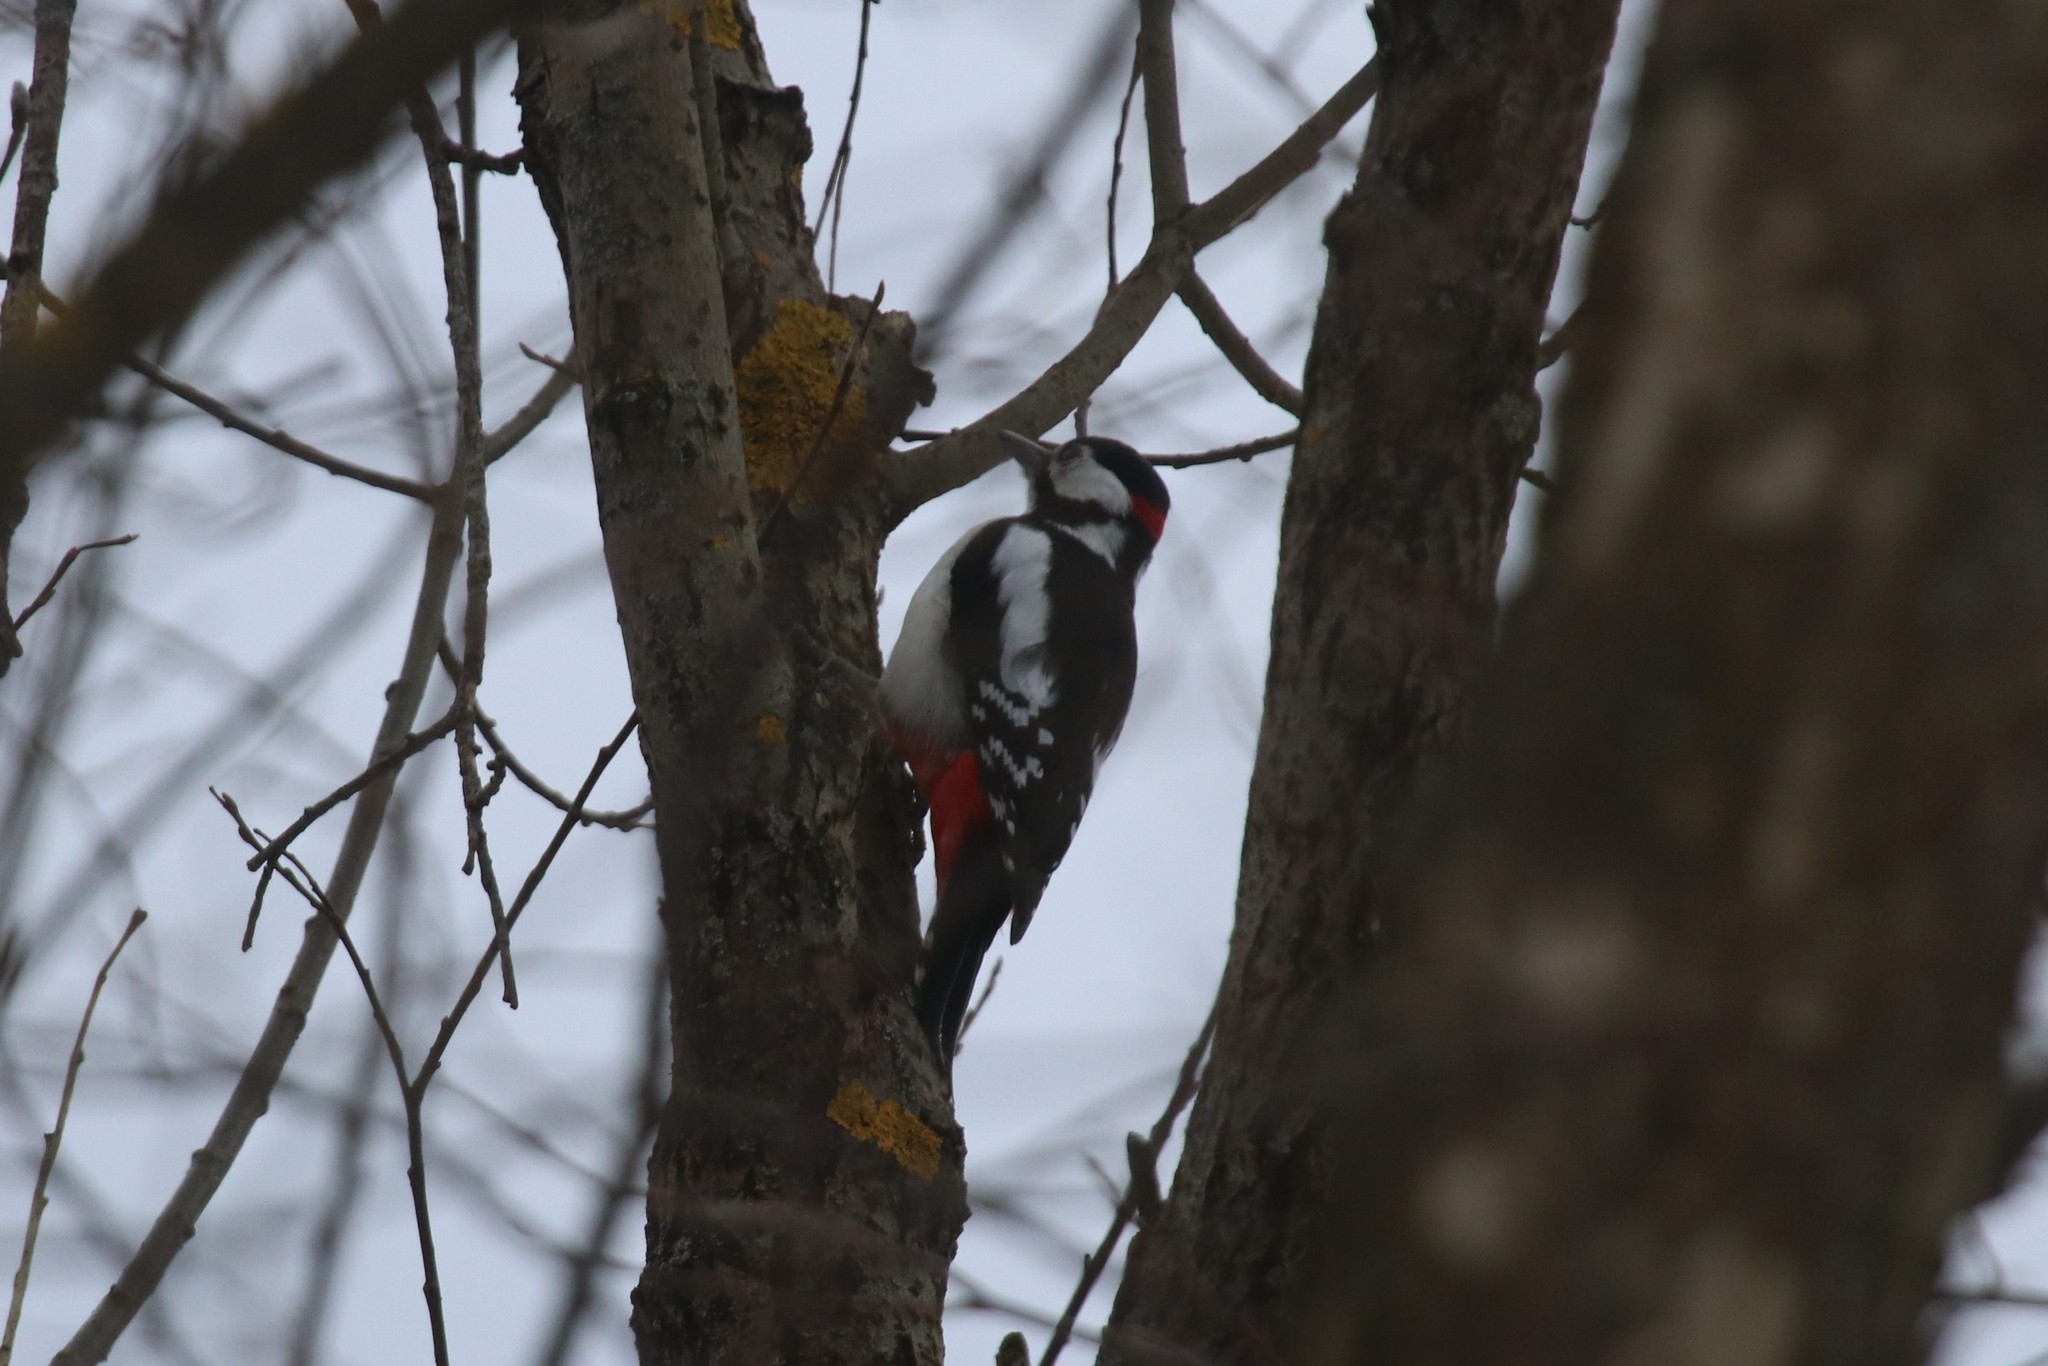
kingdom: Animalia
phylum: Chordata
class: Aves
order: Piciformes
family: Picidae
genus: Dendrocopos
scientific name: Dendrocopos major
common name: Great spotted woodpecker
